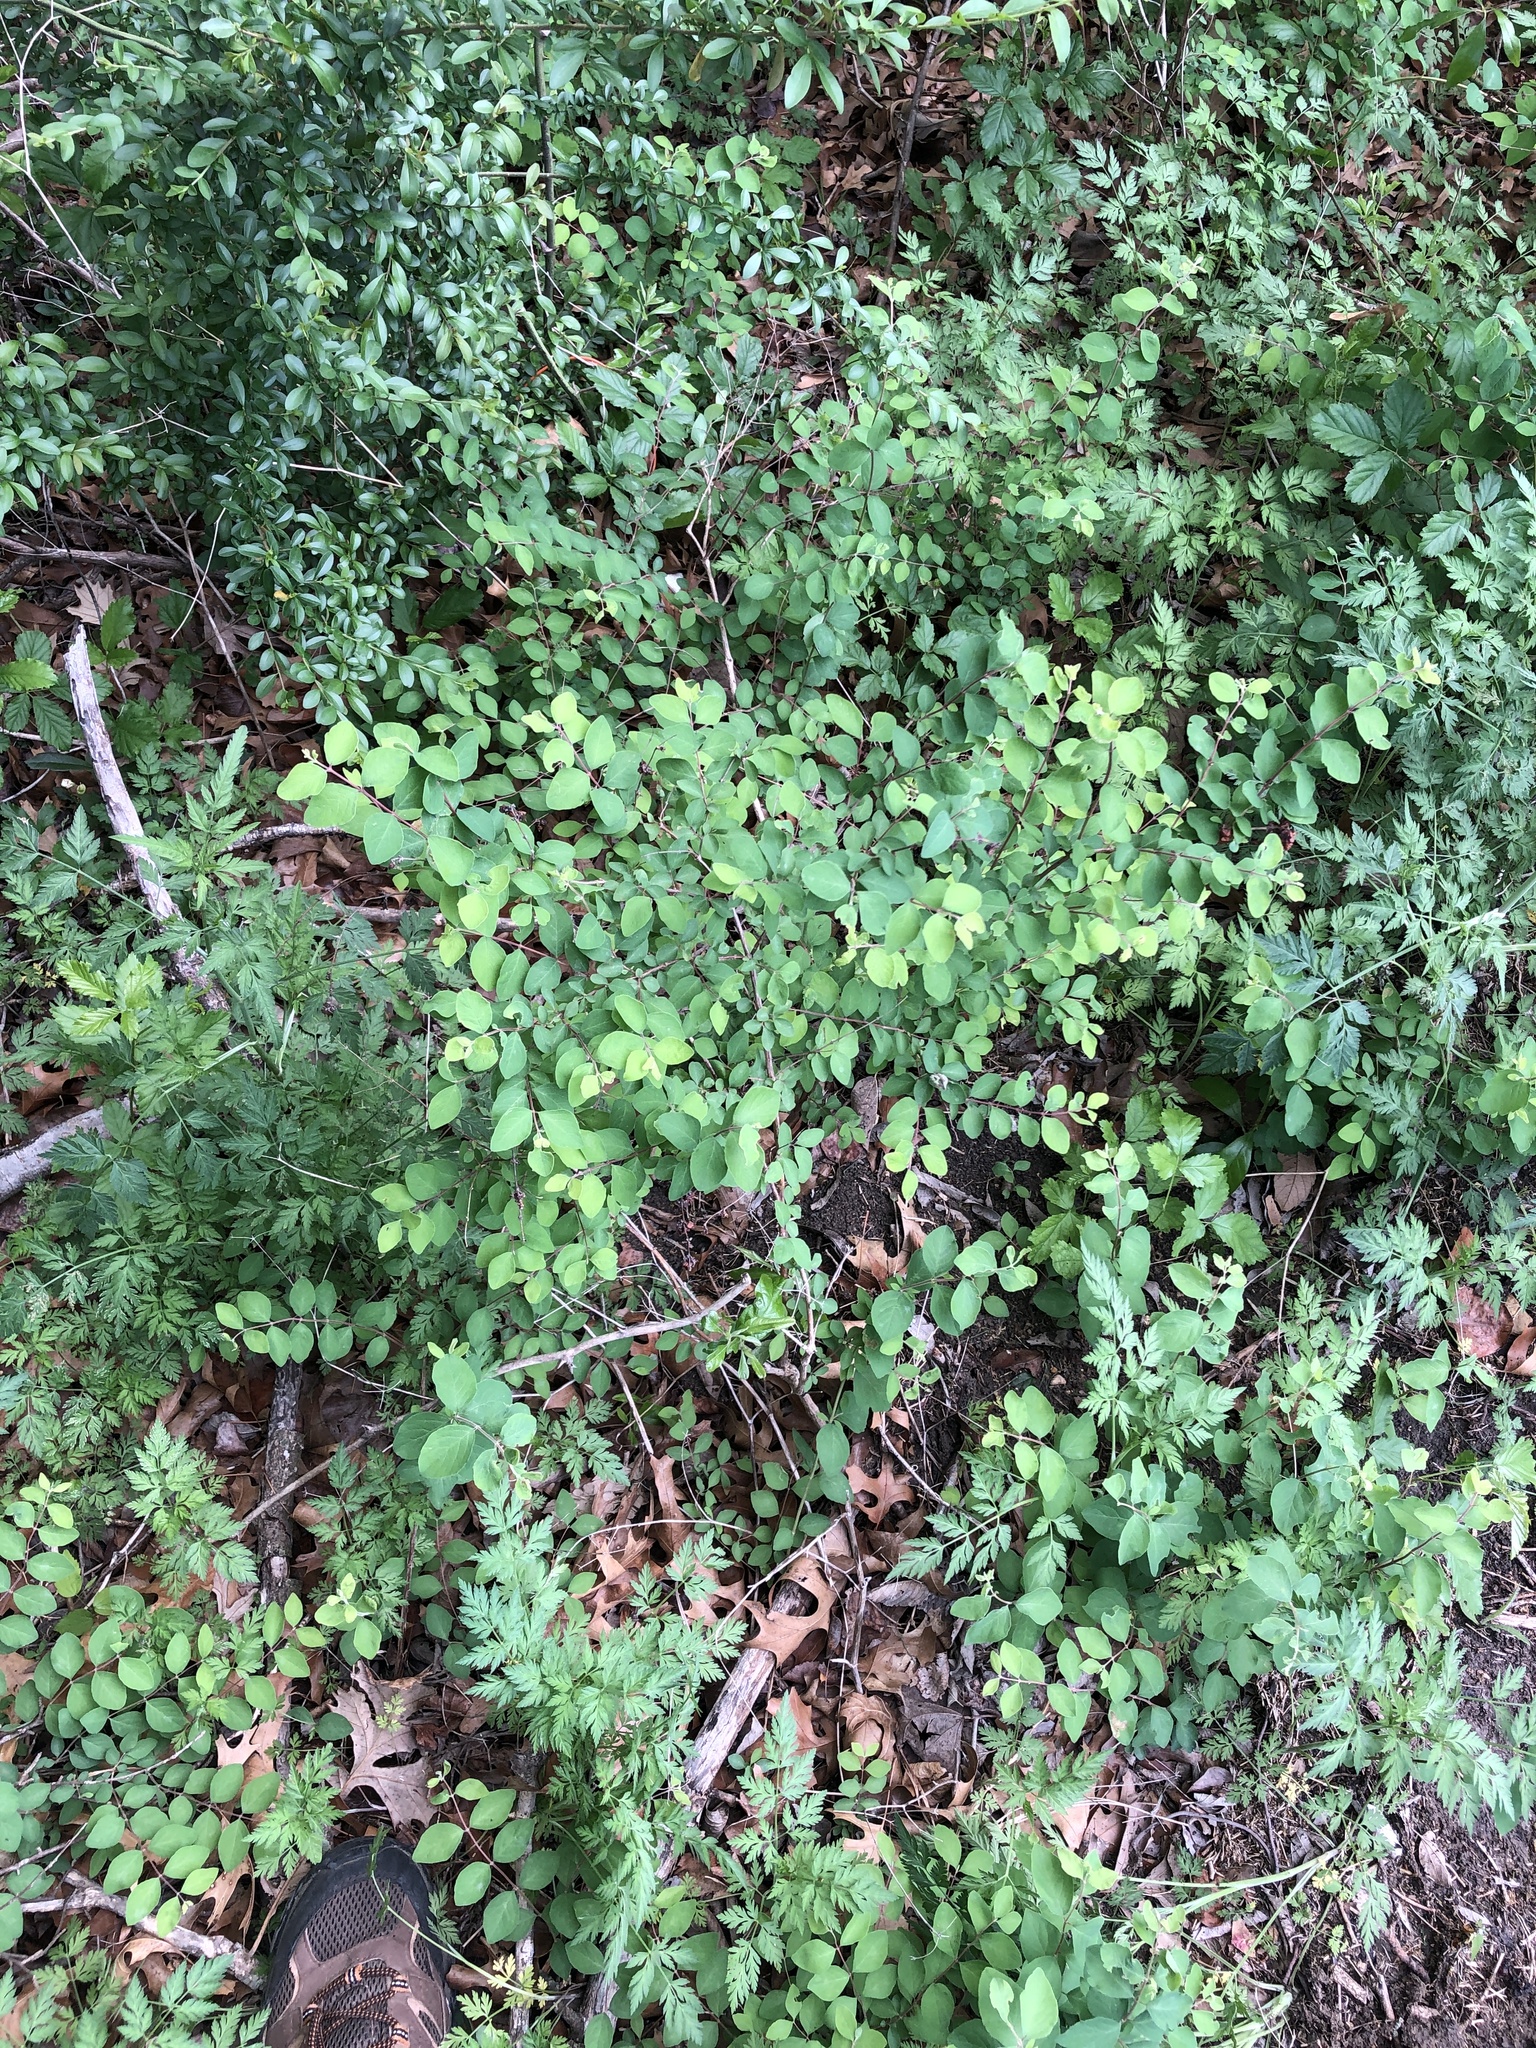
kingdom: Plantae
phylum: Tracheophyta
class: Magnoliopsida
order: Dipsacales
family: Caprifoliaceae
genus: Symphoricarpos
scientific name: Symphoricarpos orbiculatus
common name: Coralberry
